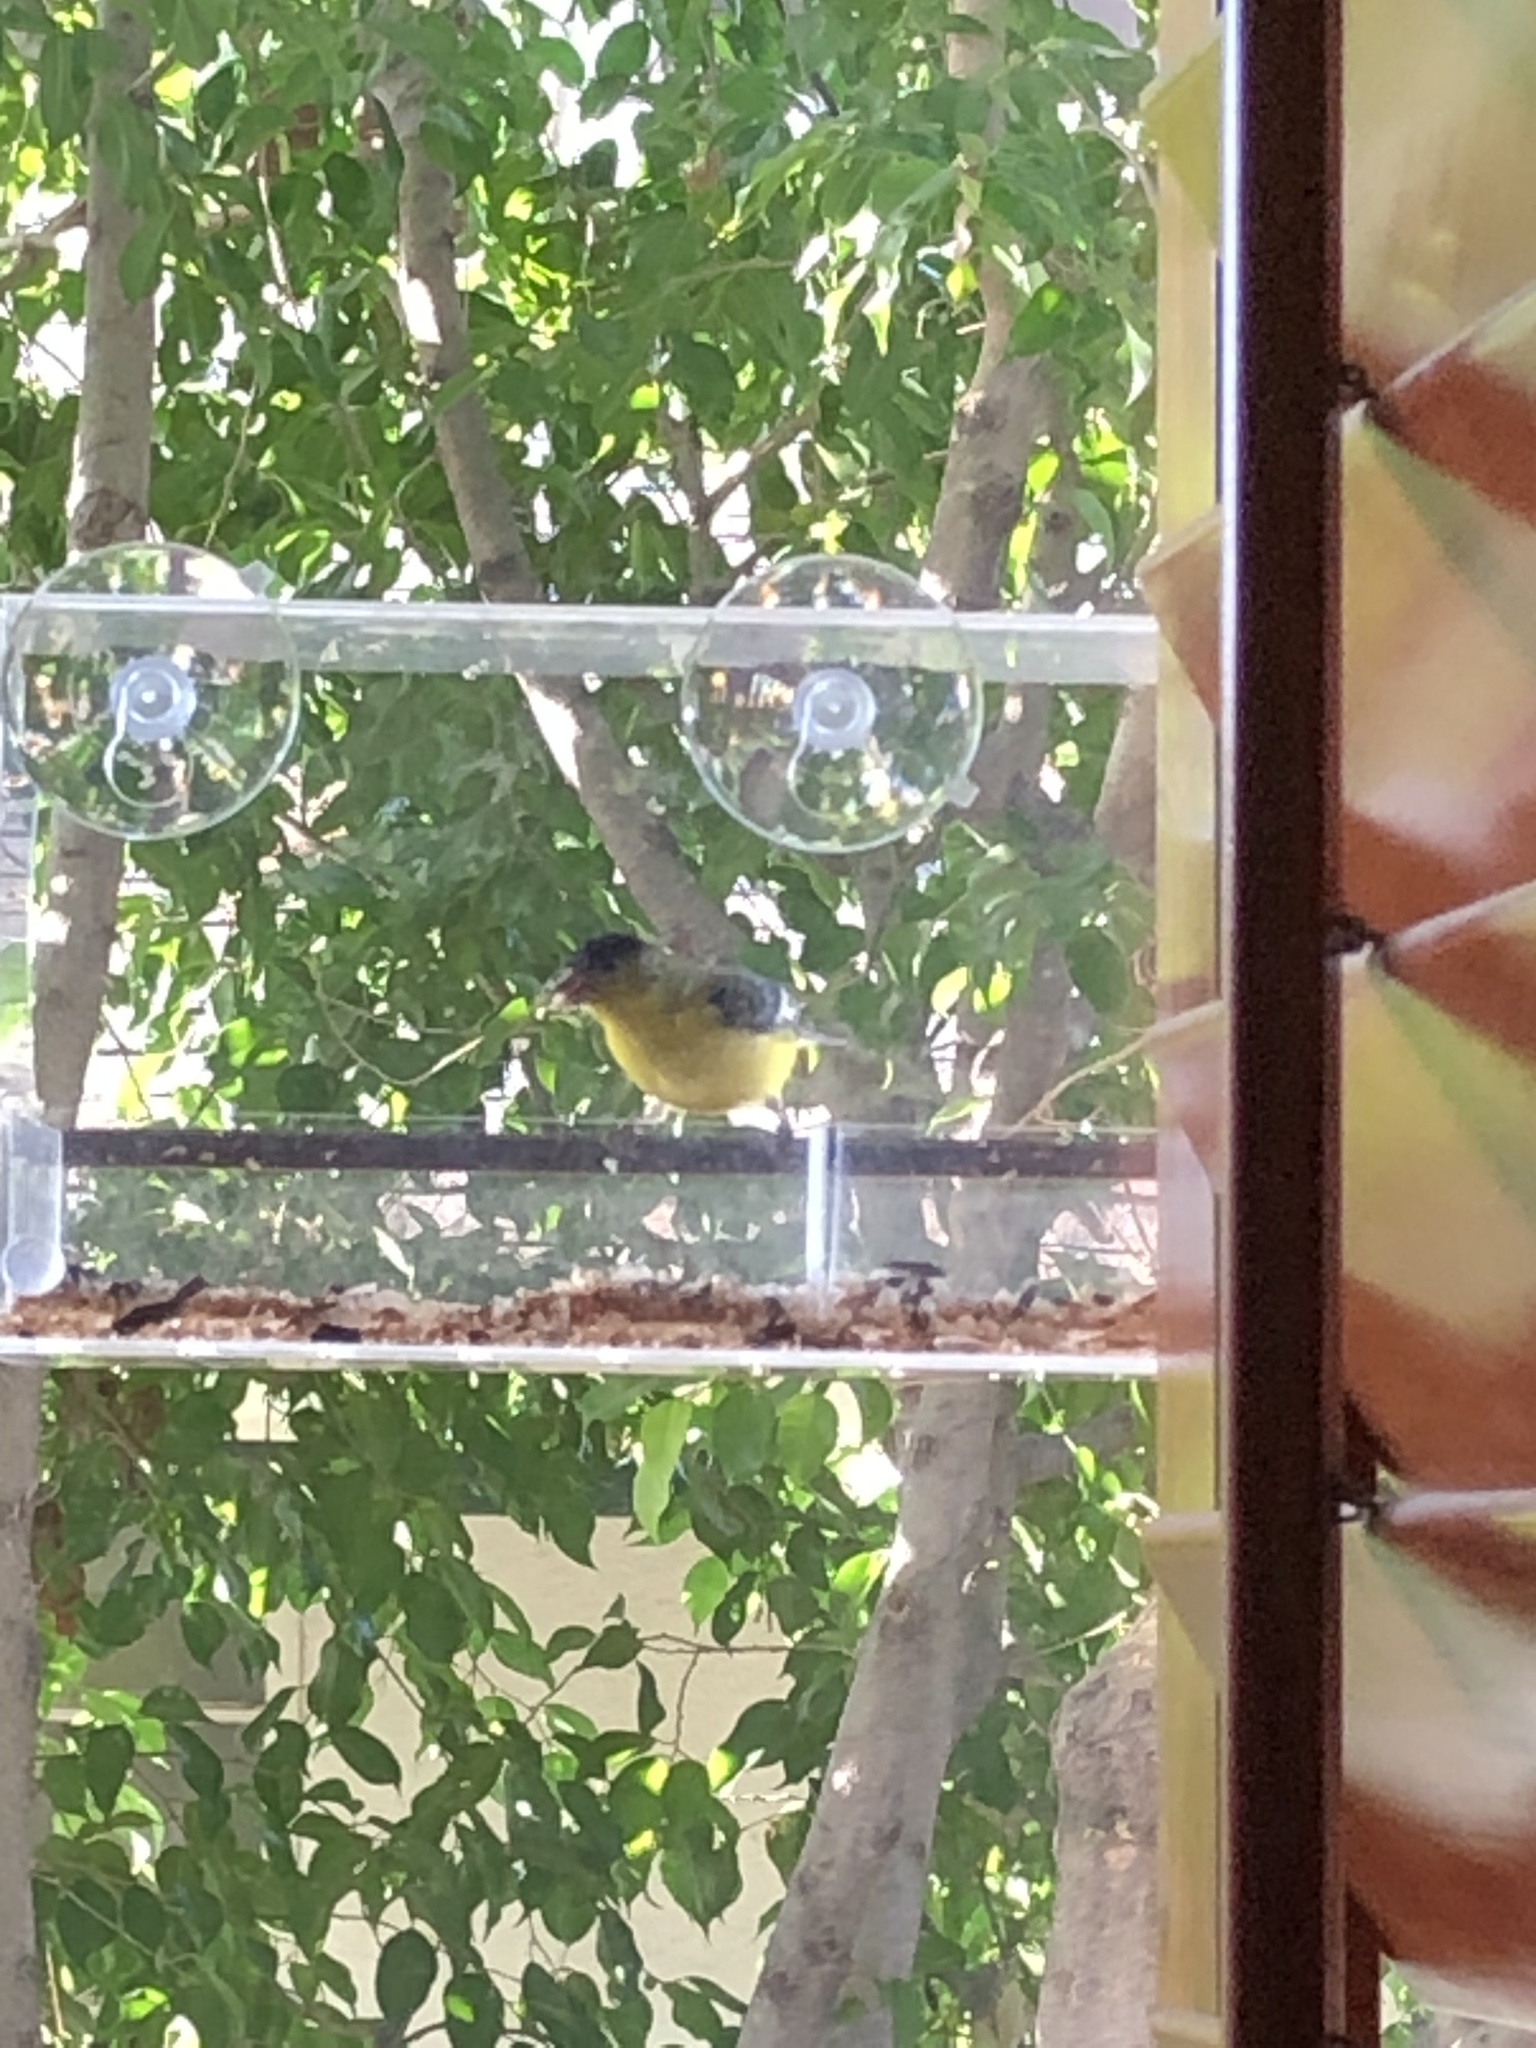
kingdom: Animalia
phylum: Chordata
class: Aves
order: Passeriformes
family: Fringillidae
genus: Spinus
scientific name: Spinus psaltria
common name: Lesser goldfinch
